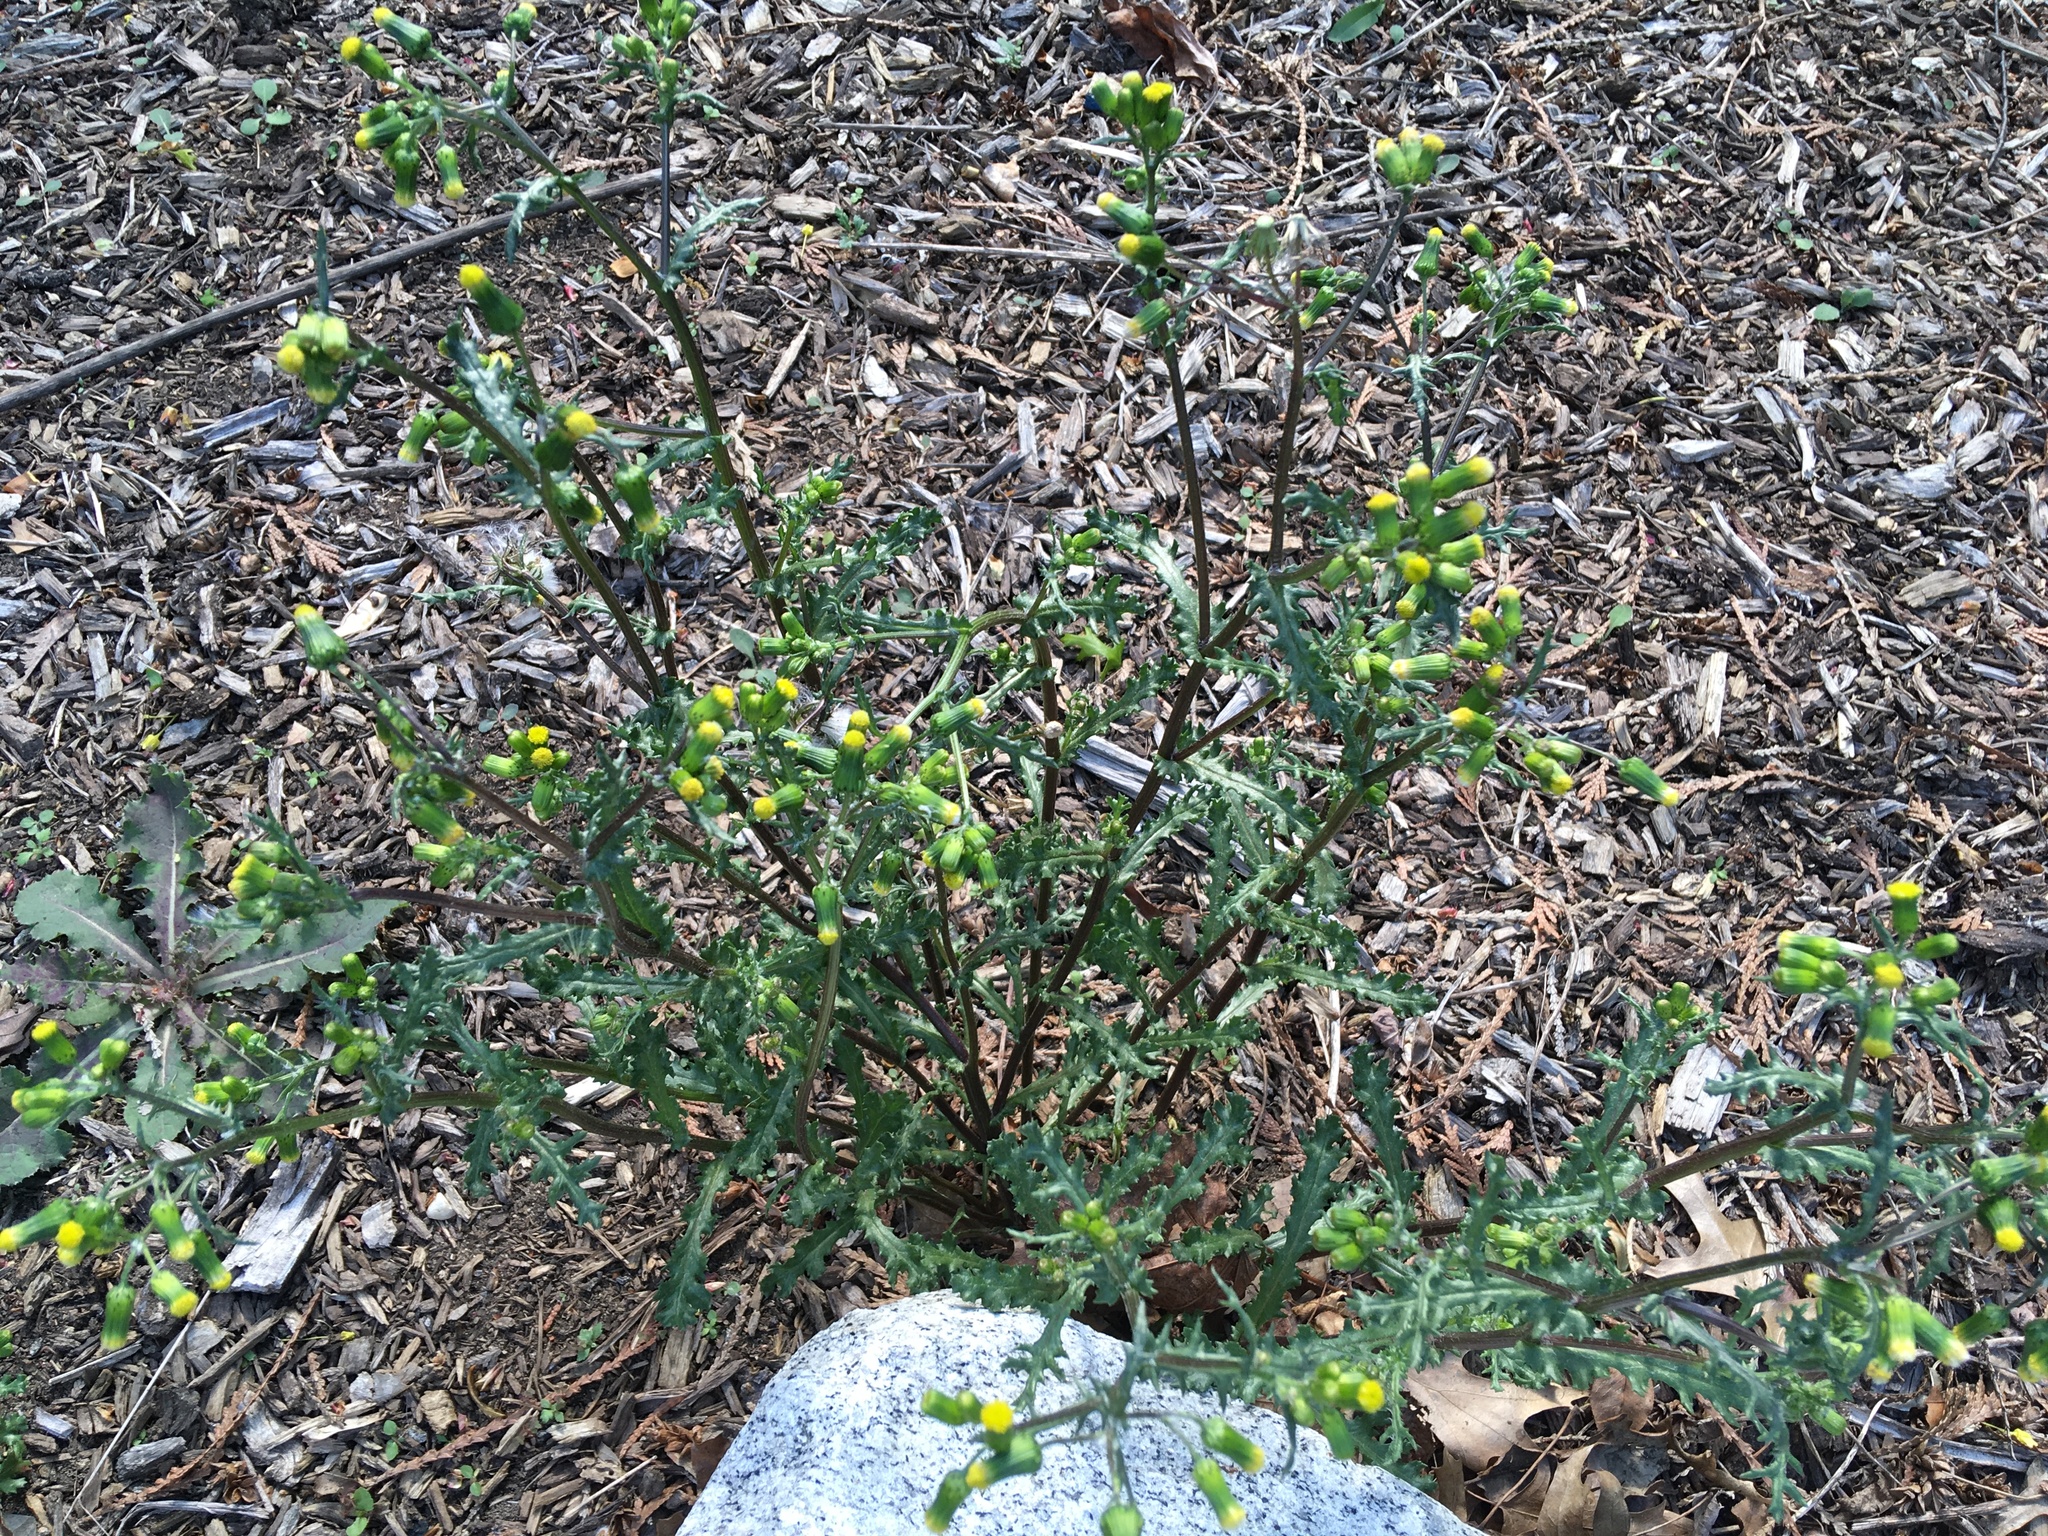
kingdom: Plantae
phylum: Tracheophyta
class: Magnoliopsida
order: Asterales
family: Asteraceae
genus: Senecio
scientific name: Senecio vulgaris
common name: Old-man-in-the-spring
